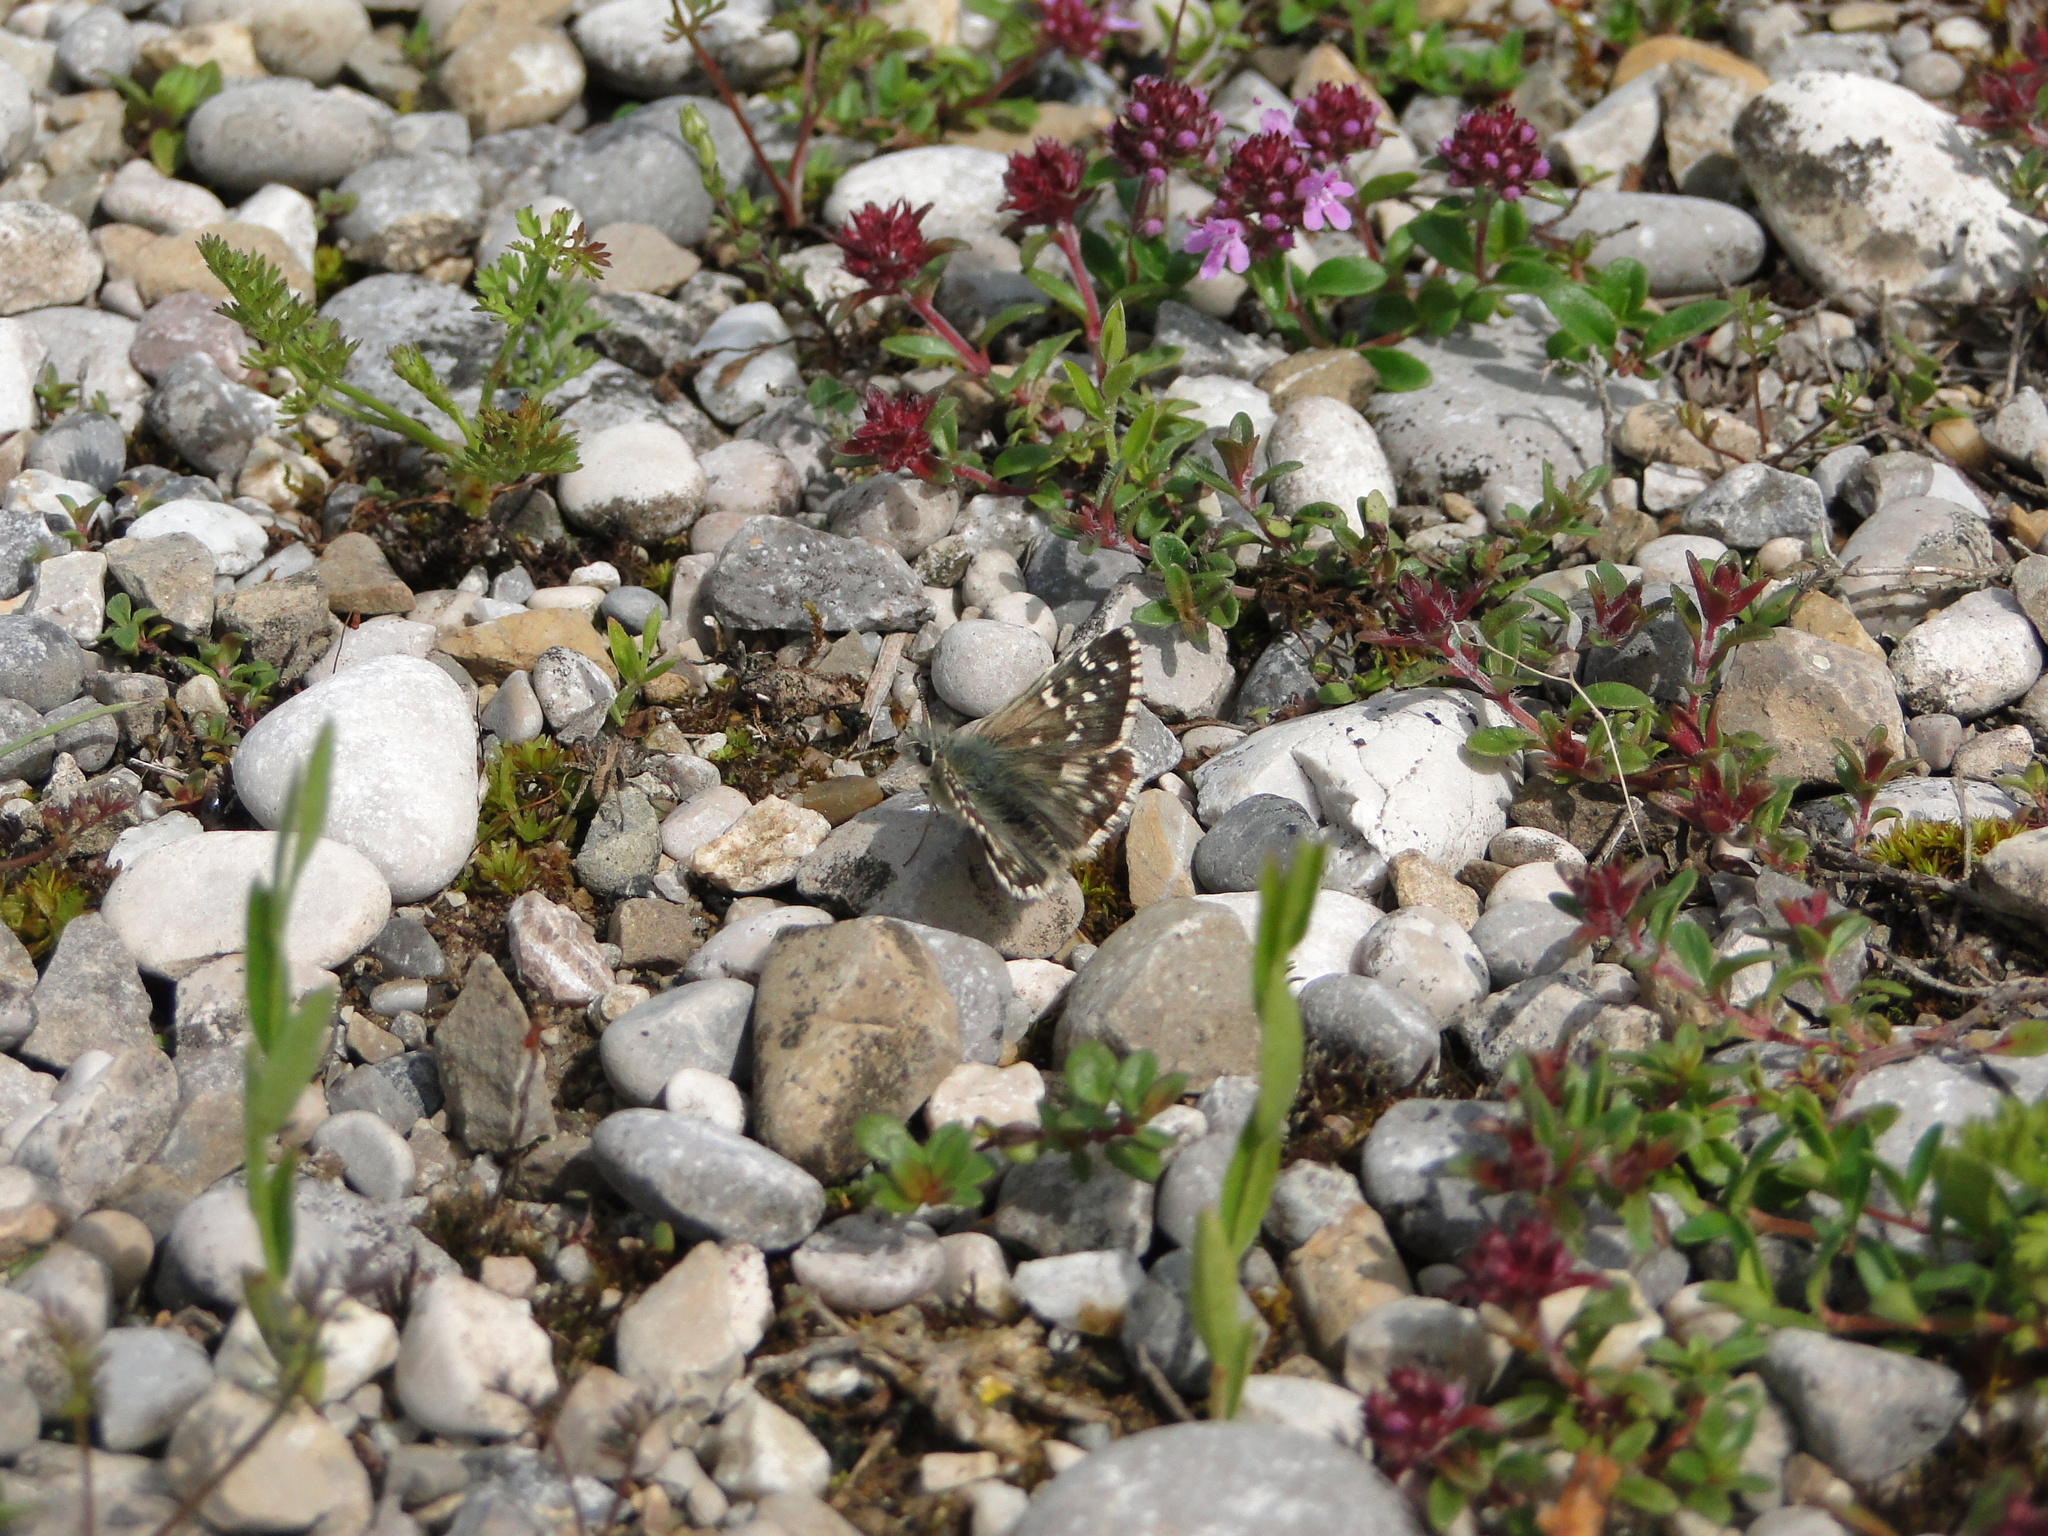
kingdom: Animalia
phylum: Arthropoda
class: Insecta
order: Lepidoptera
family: Hesperiidae
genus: Pyrgus
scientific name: Pyrgus armoricanus
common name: Oberthür's grizzled skipper
